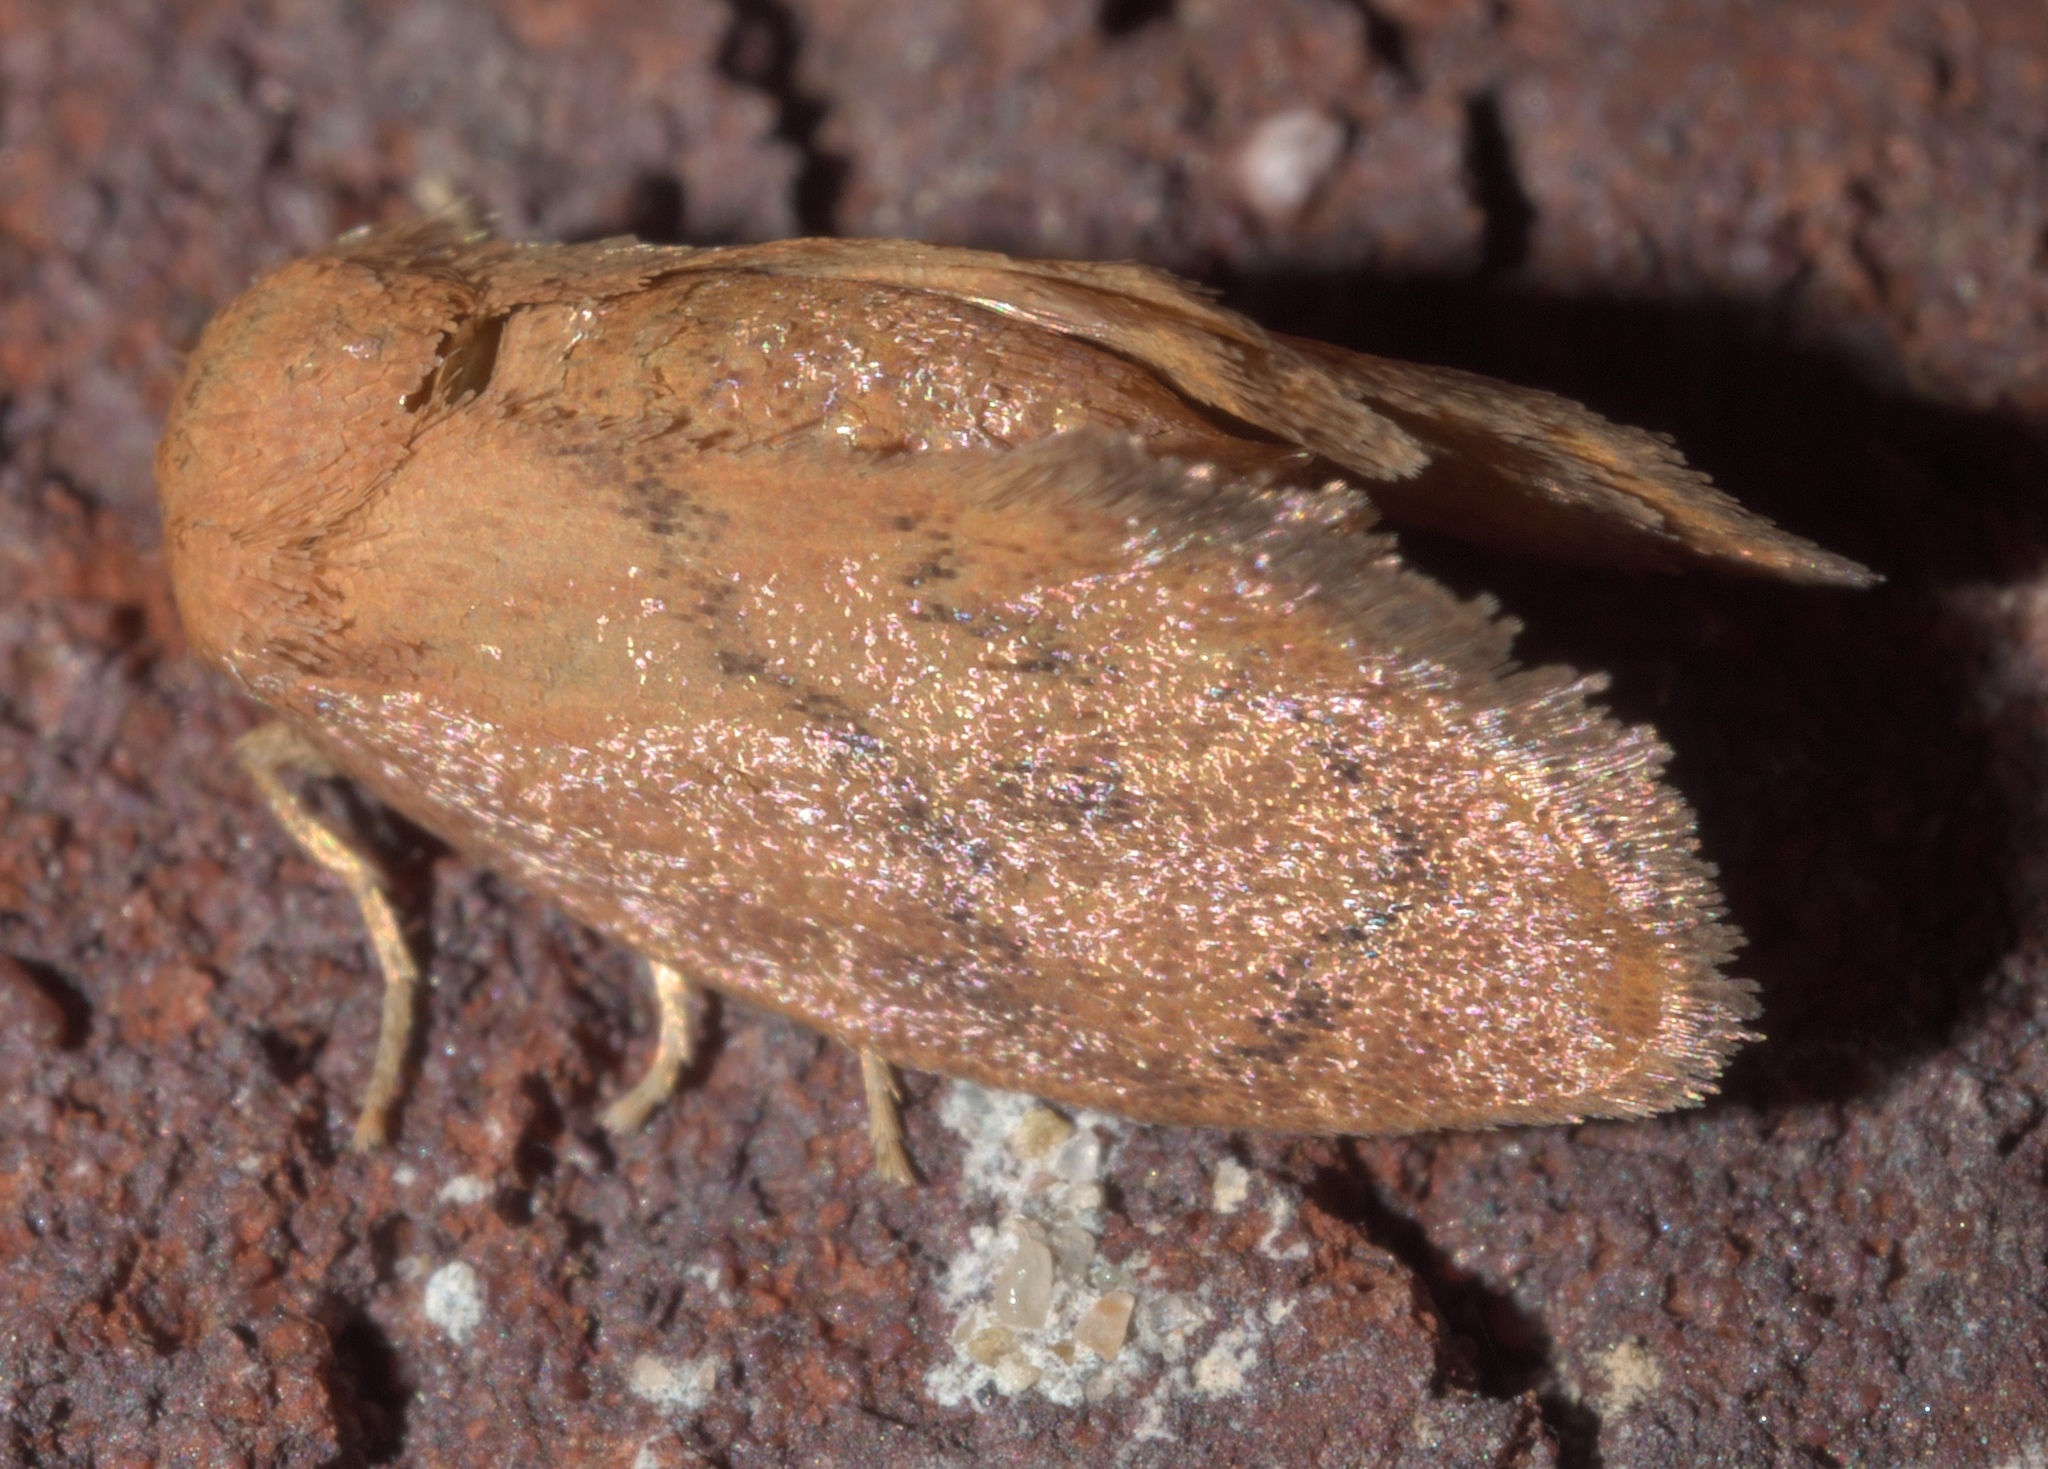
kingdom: Animalia
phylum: Arthropoda
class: Insecta
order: Lepidoptera
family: Limacodidae
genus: Heterogenea
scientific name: Heterogenea shurtleffi
